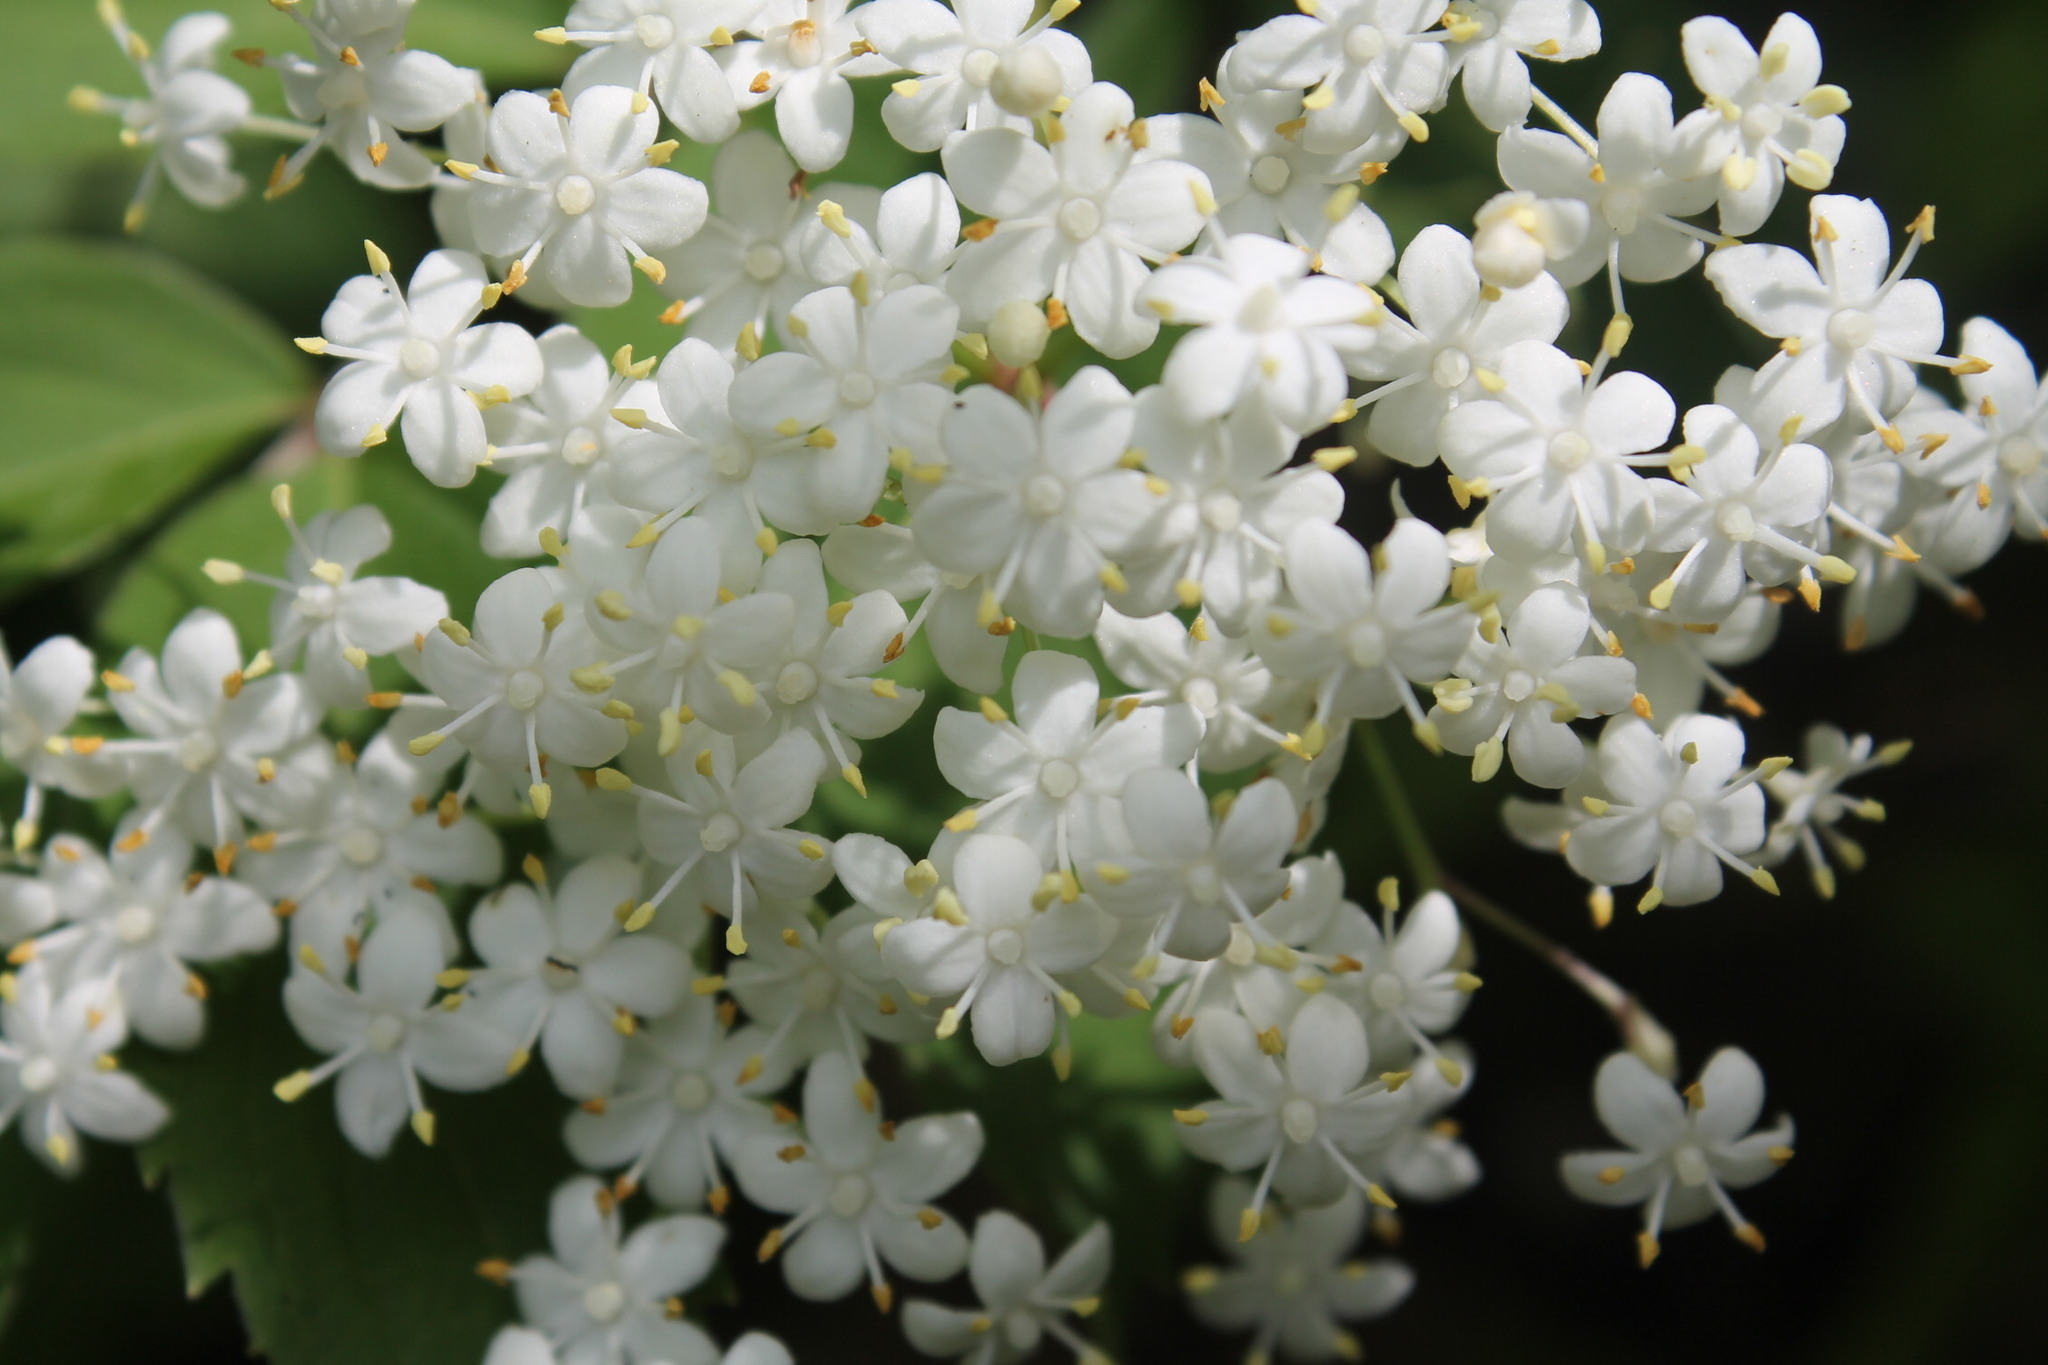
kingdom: Plantae
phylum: Tracheophyta
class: Magnoliopsida
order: Dipsacales
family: Viburnaceae
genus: Sambucus
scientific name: Sambucus canadensis
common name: American elder
